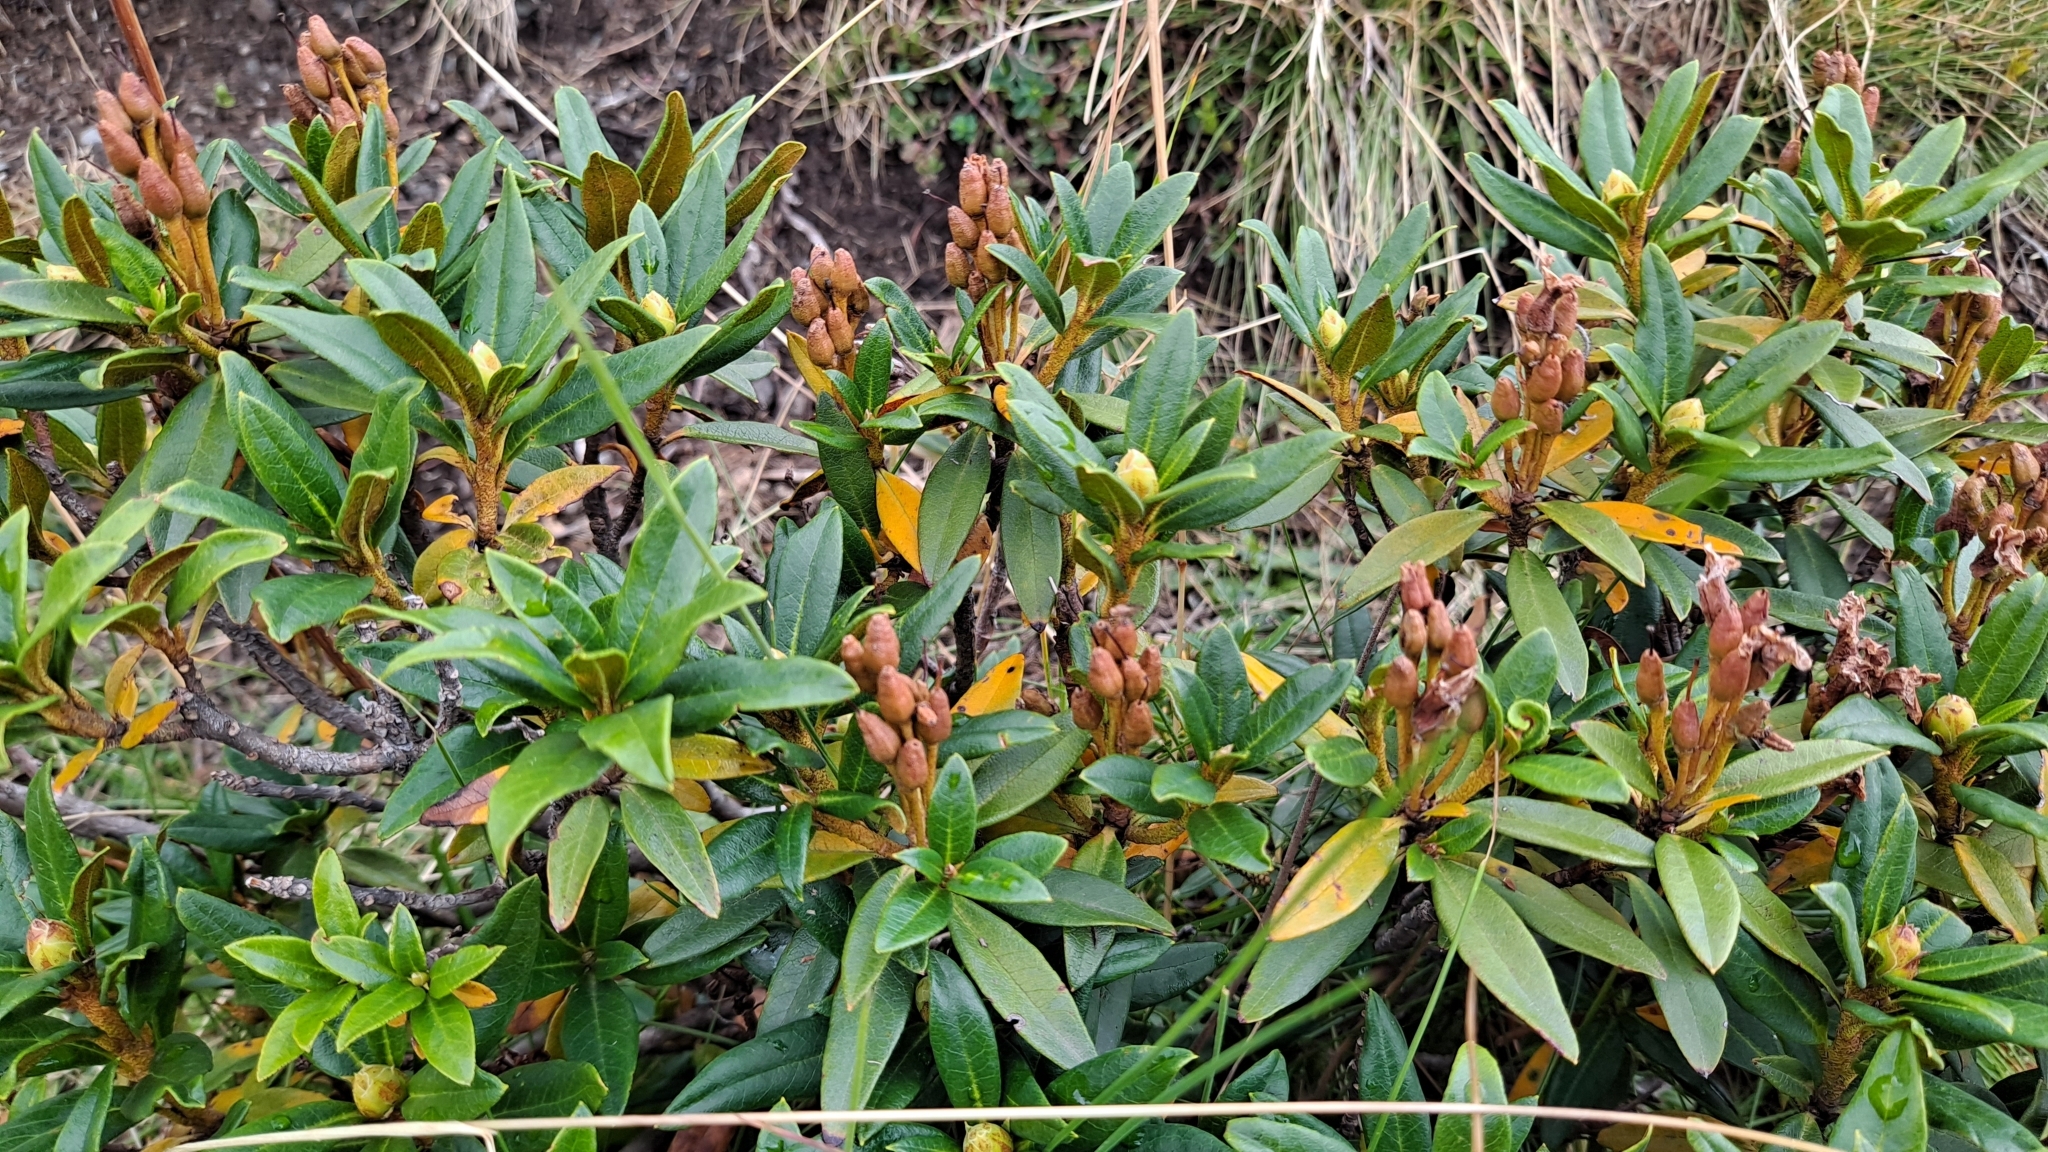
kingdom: Plantae
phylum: Tracheophyta
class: Magnoliopsida
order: Ericales
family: Ericaceae
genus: Rhododendron
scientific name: Rhododendron ferrugineum
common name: Alpenrose
